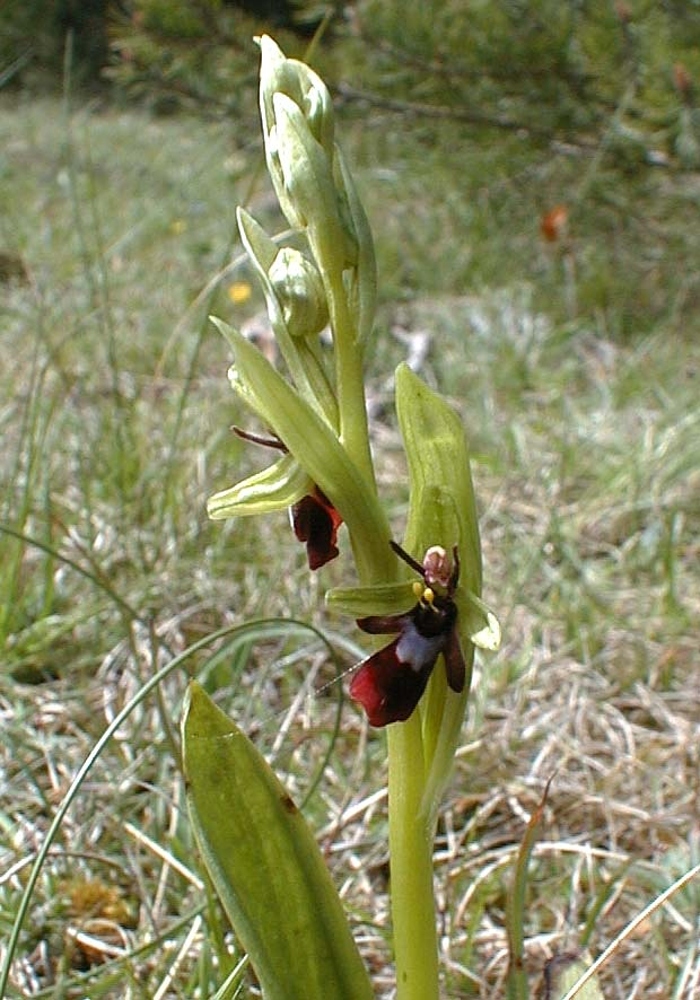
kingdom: Plantae
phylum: Tracheophyta
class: Liliopsida
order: Asparagales
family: Orchidaceae
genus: Ophrys
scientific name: Ophrys insectifera
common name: Fly orchid
